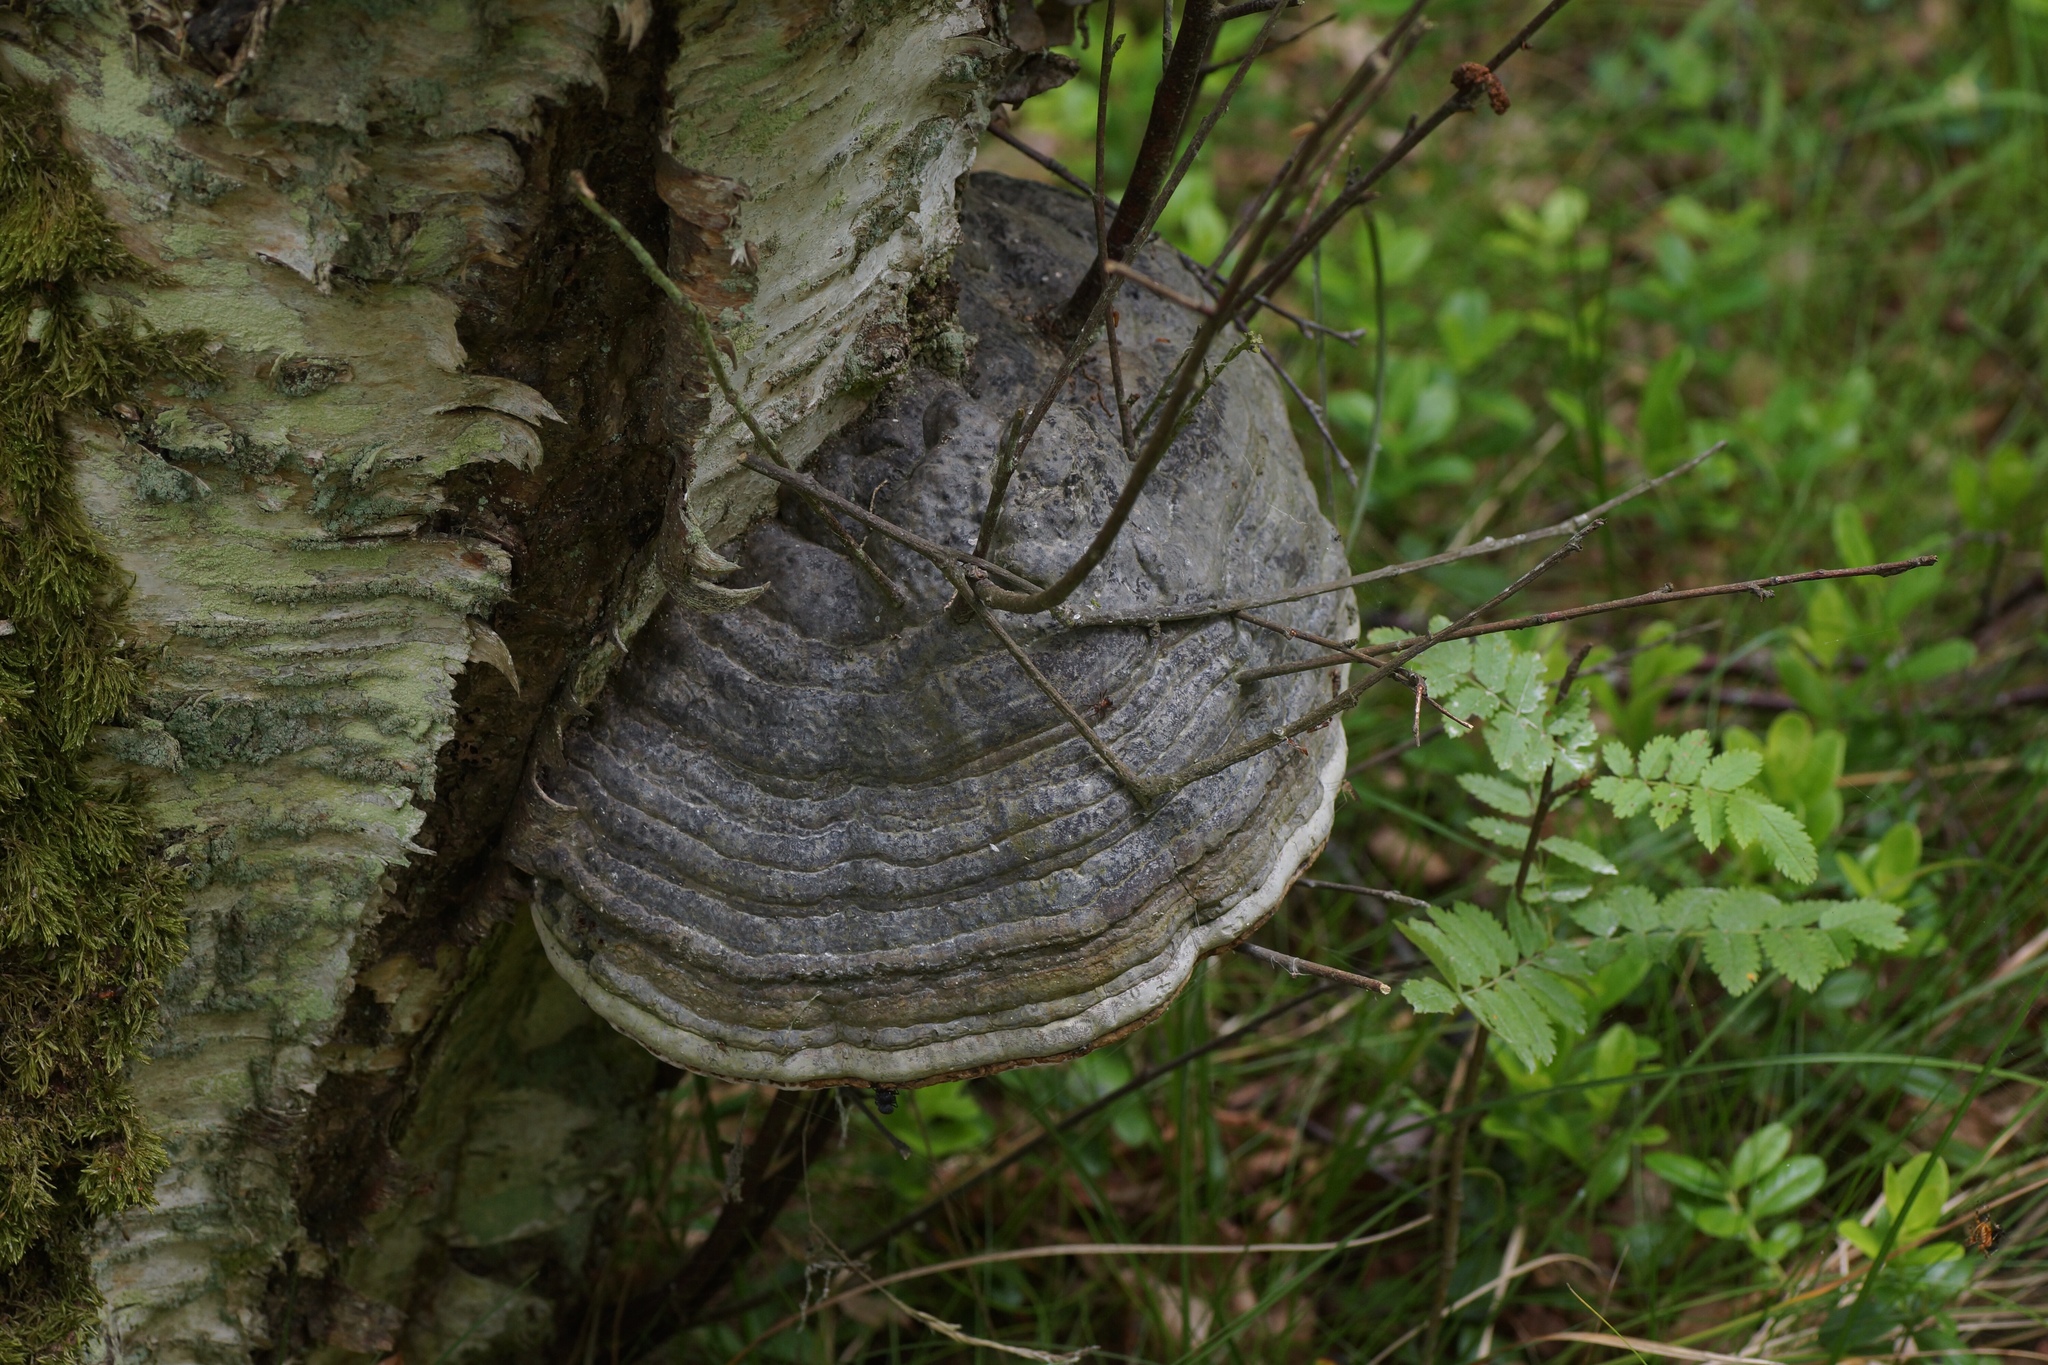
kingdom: Fungi
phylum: Basidiomycota
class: Agaricomycetes
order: Polyporales
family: Polyporaceae
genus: Fomes
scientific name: Fomes fomentarius
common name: Hoof fungus
